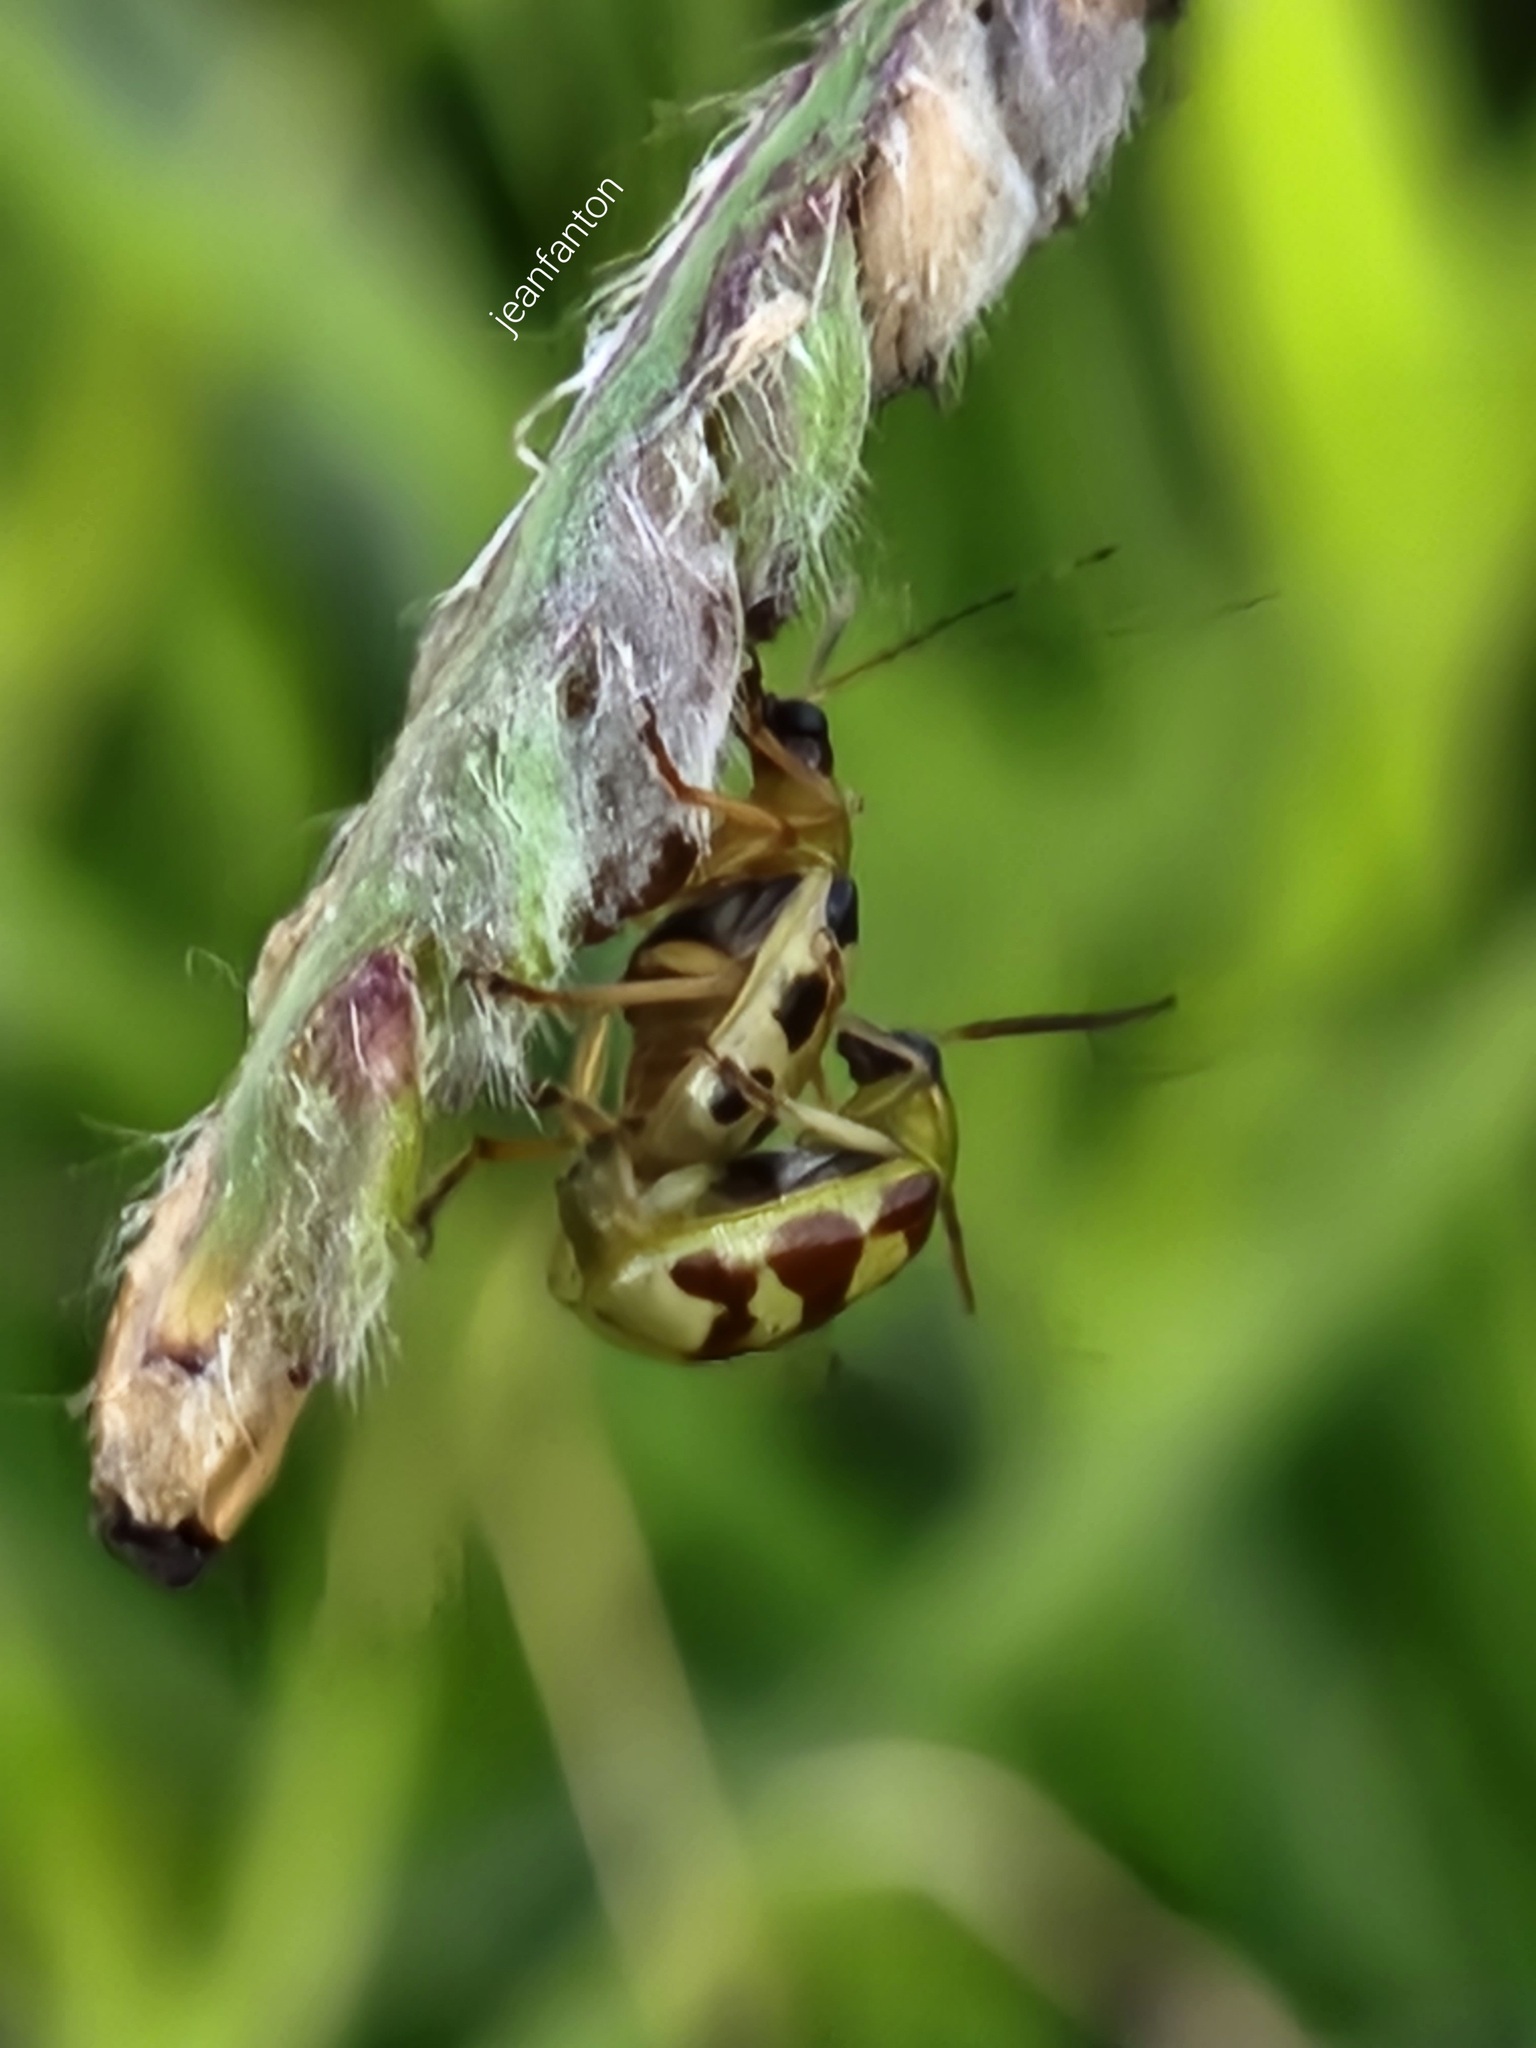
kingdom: Animalia
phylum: Arthropoda
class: Insecta
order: Coleoptera
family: Chrysomelidae
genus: Basiprionota
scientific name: Basiprionota sinuata
